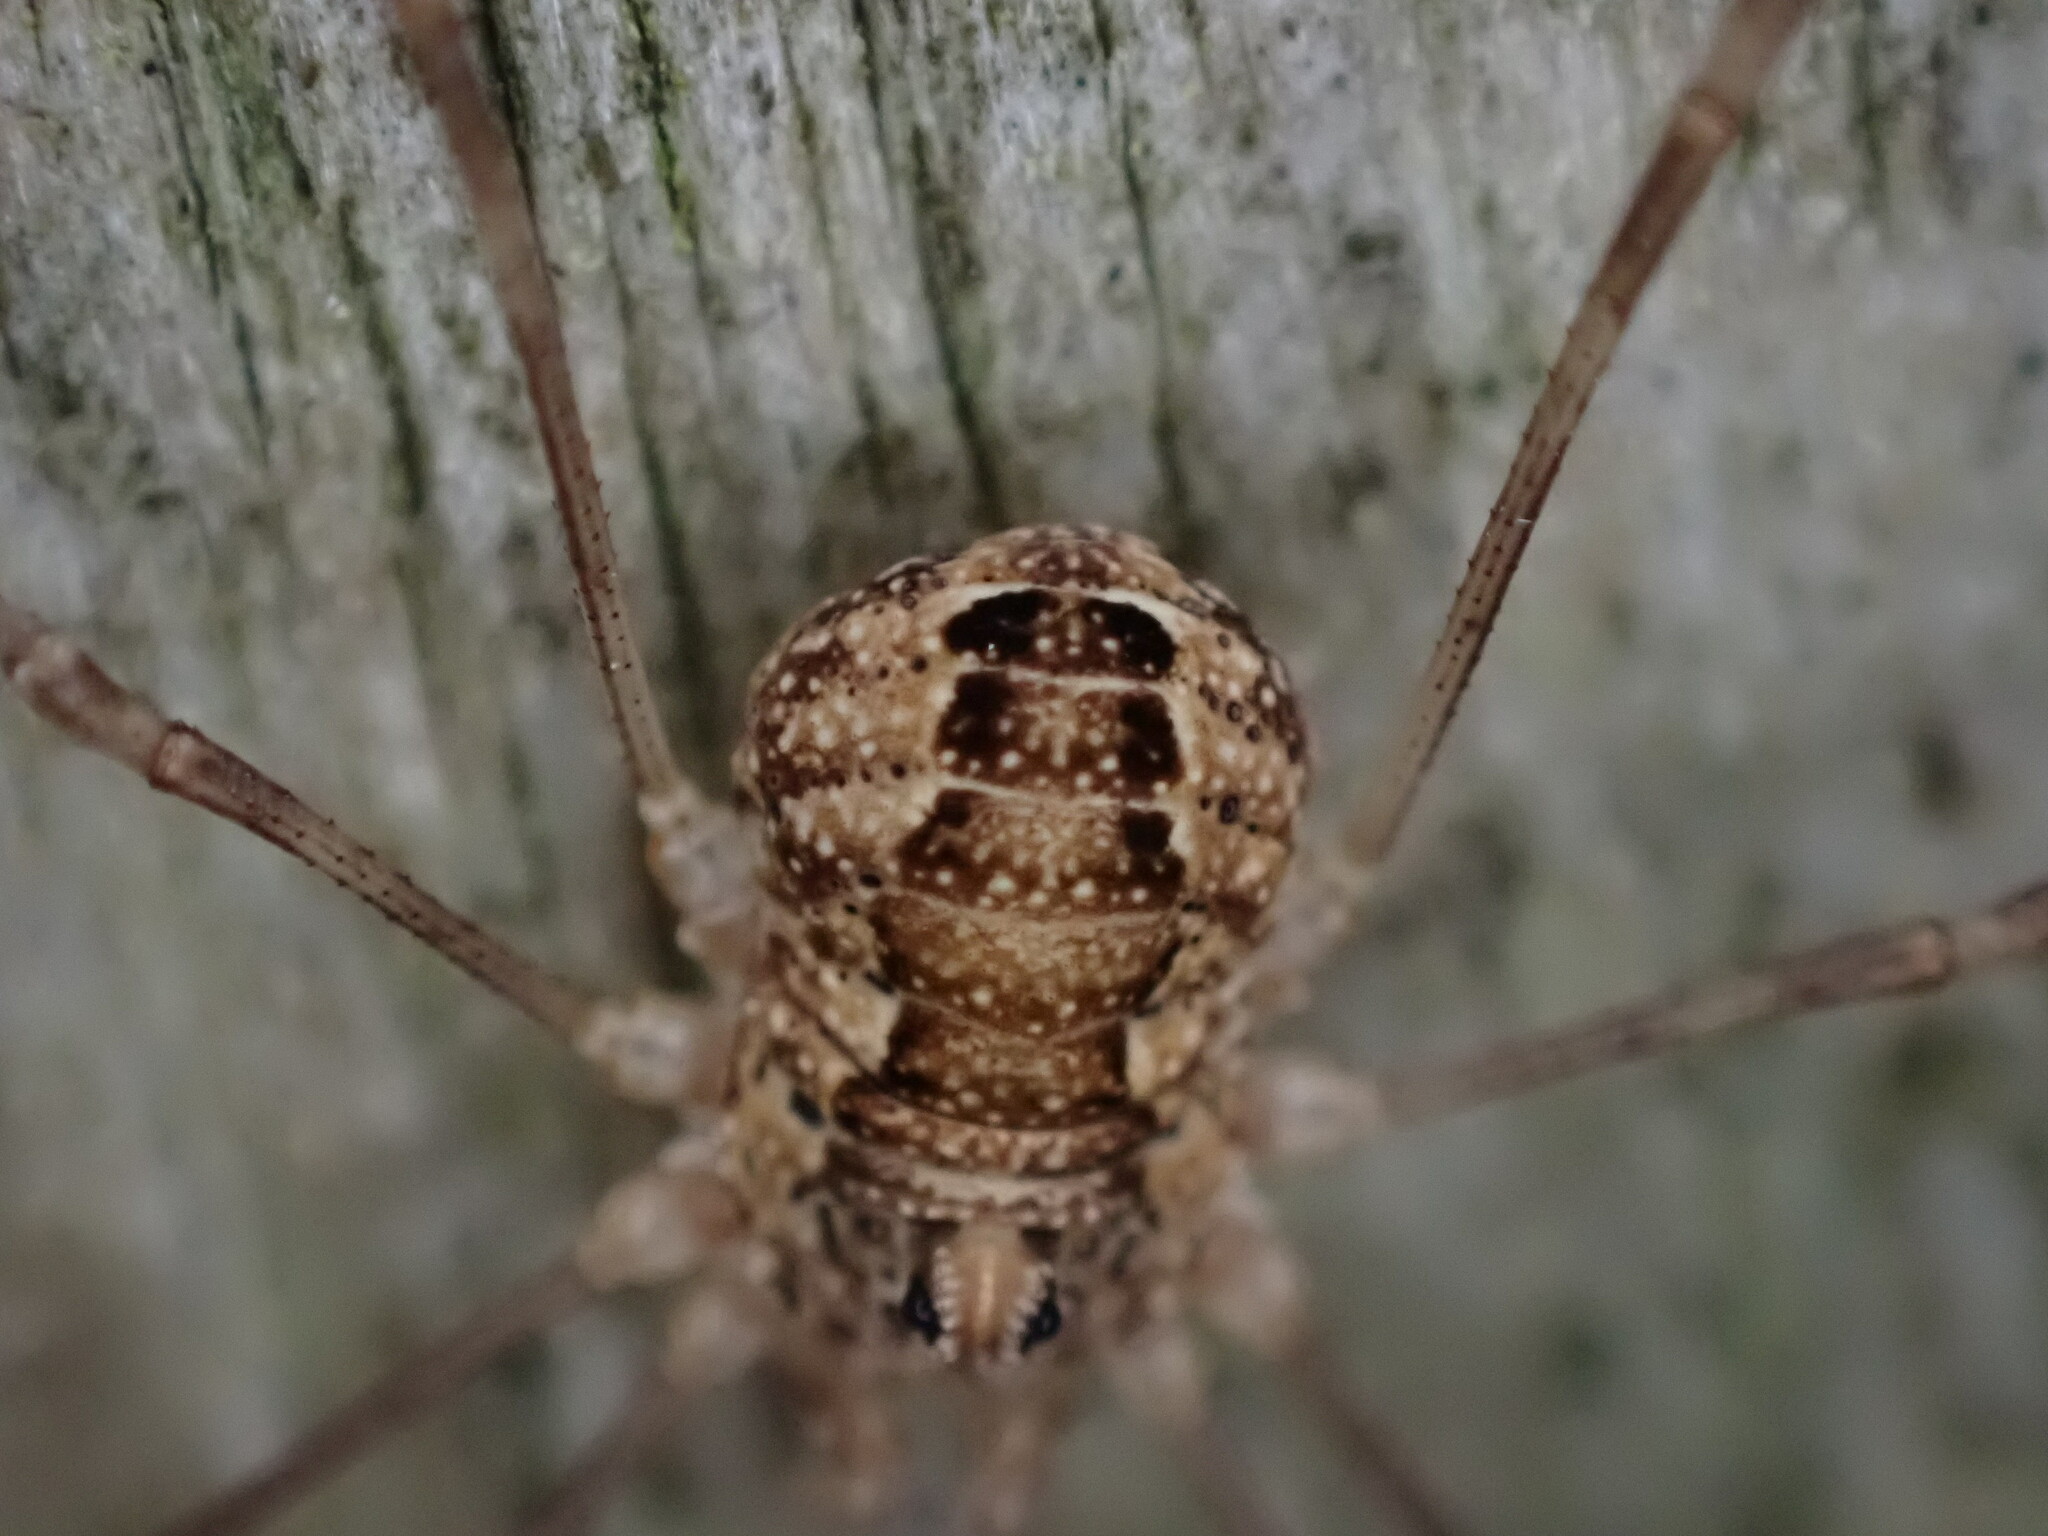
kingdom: Animalia
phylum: Arthropoda
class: Arachnida
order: Opiliones
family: Phalangiidae
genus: Rilaena
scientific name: Rilaena triangularis
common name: Spring harvestman
